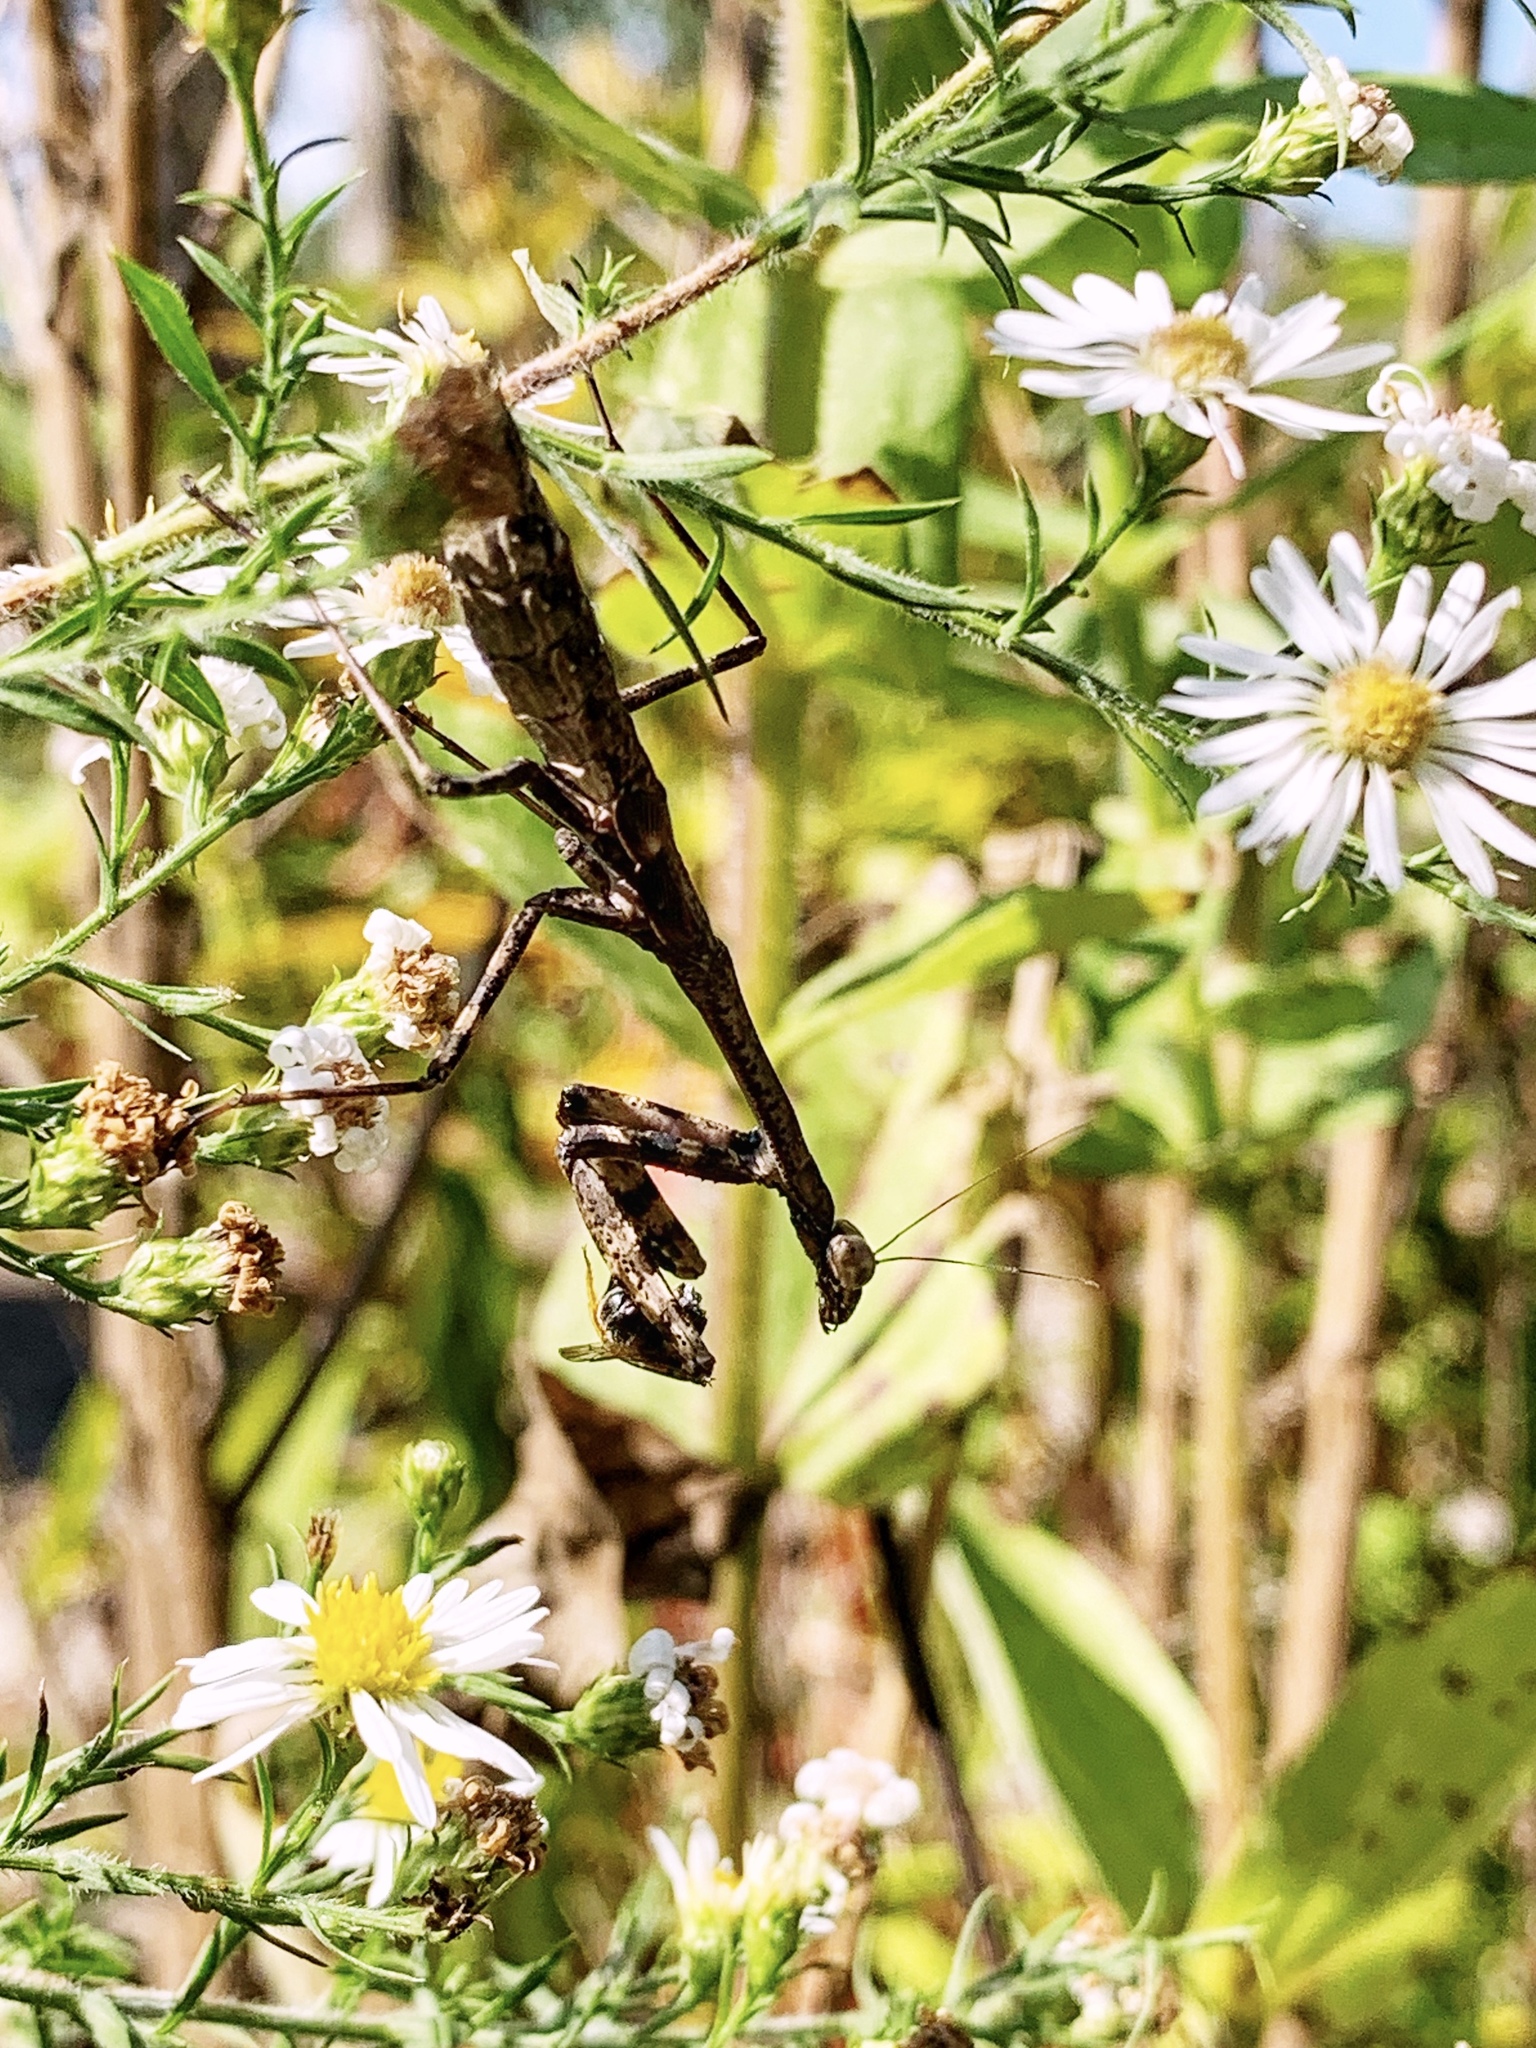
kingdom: Animalia
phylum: Arthropoda
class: Insecta
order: Mantodea
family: Mantidae
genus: Stagmomantis
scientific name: Stagmomantis carolina
